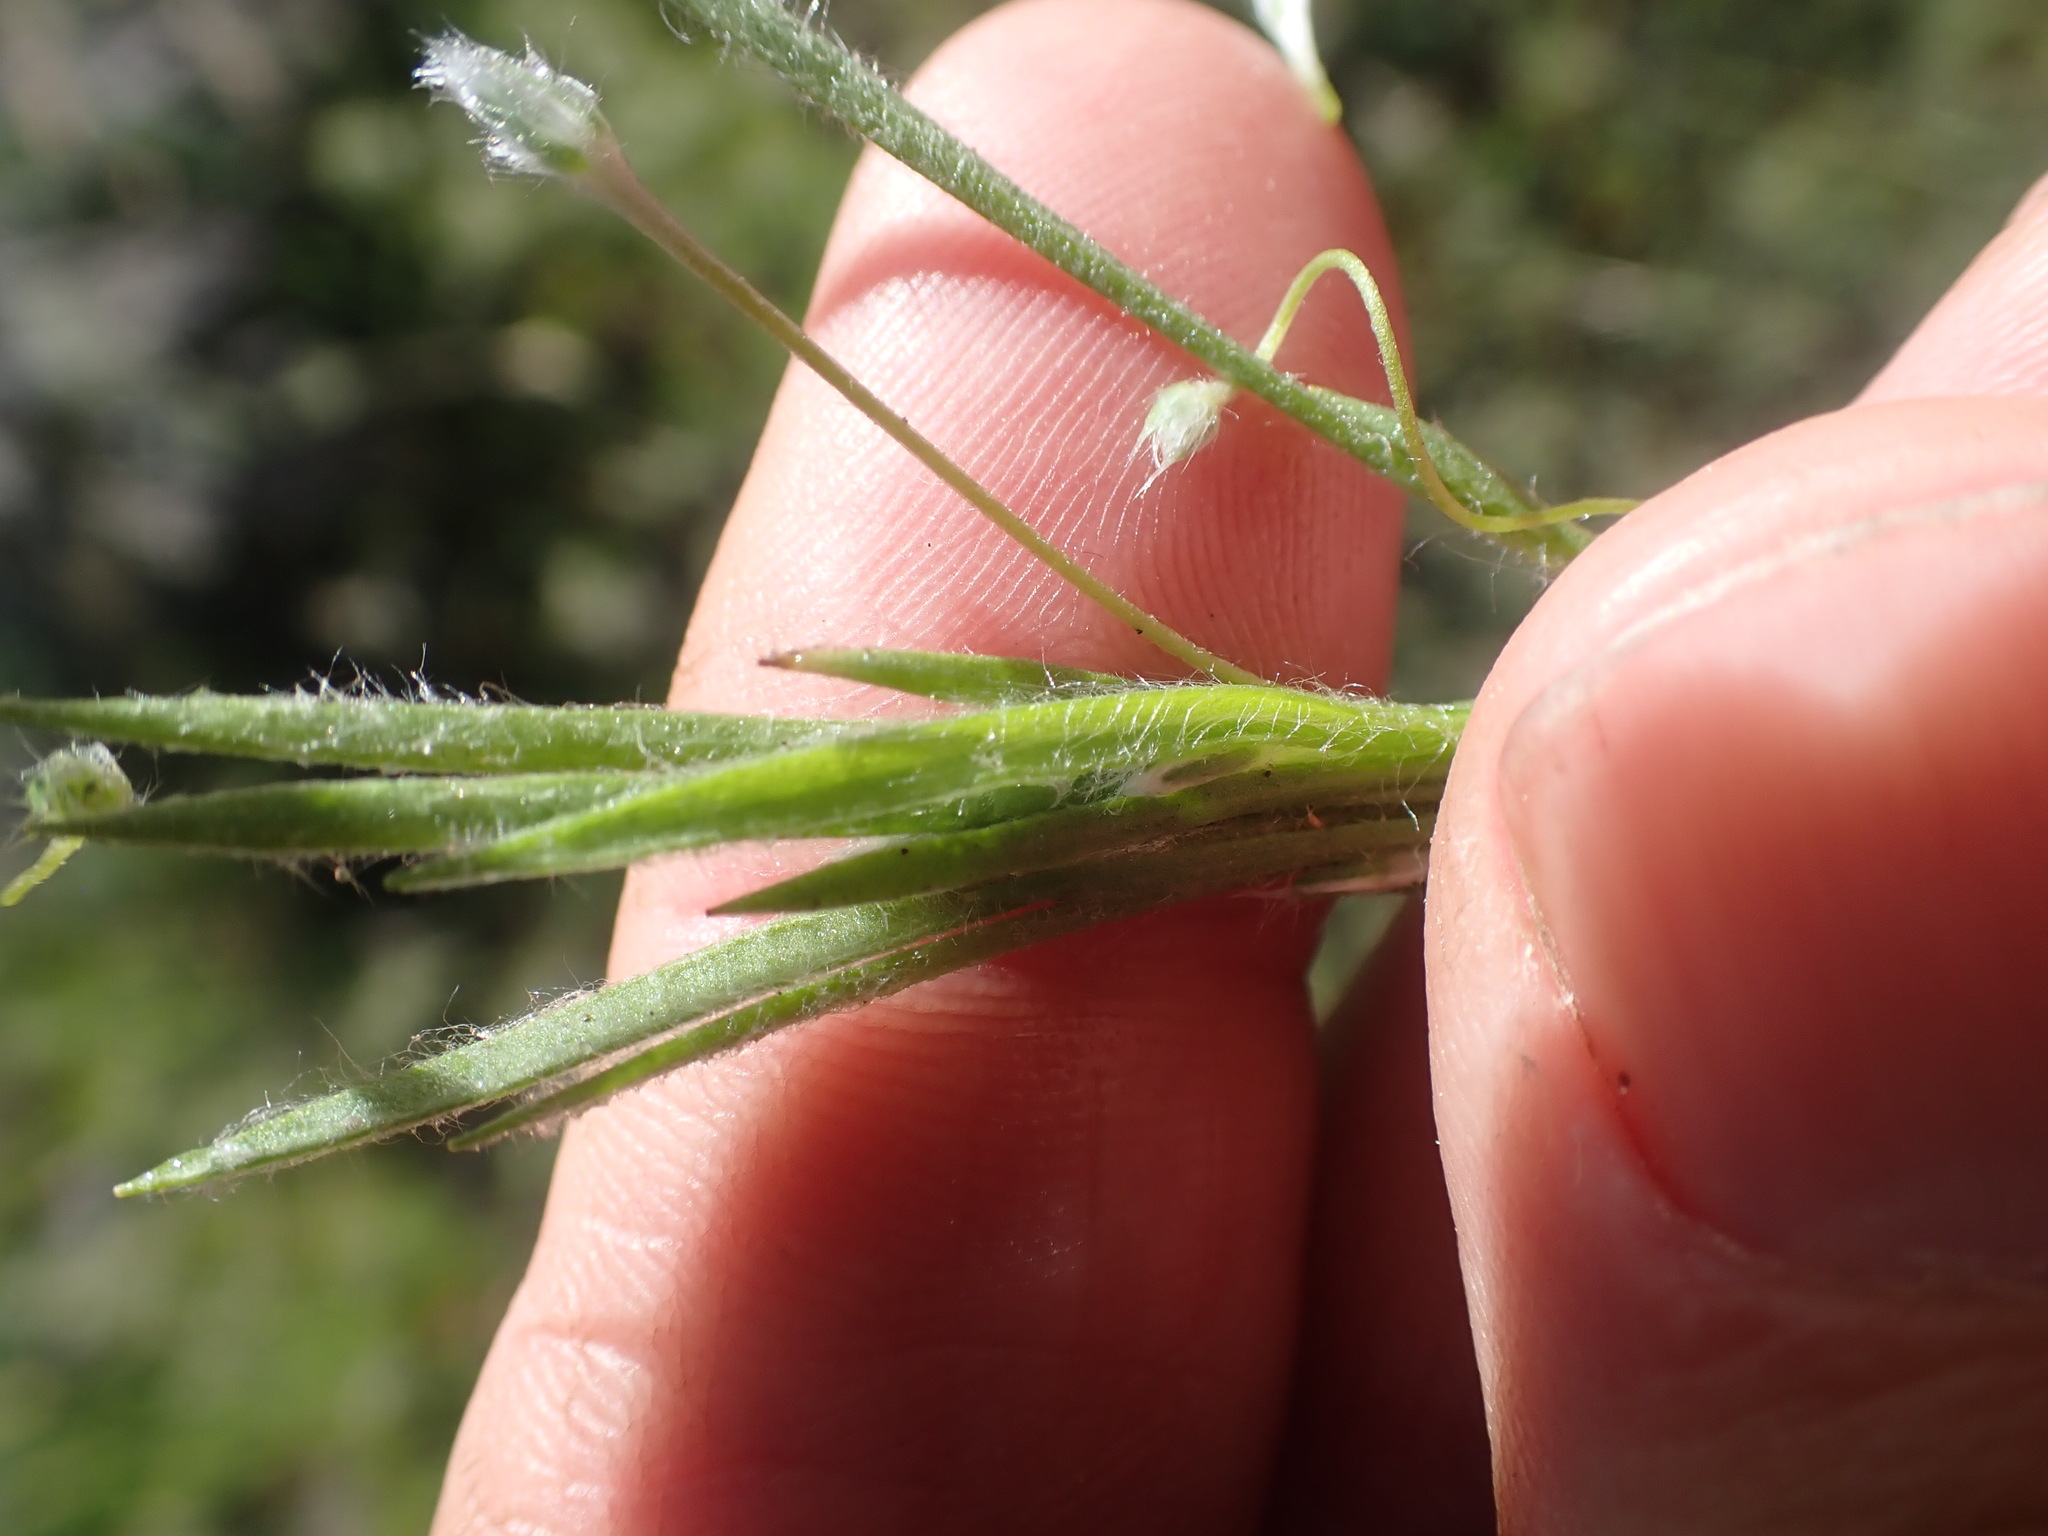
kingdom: Plantae
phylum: Tracheophyta
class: Magnoliopsida
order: Lamiales
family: Plantaginaceae
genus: Plantago
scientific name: Plantago patagonica
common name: Patagonia indian-wheat
